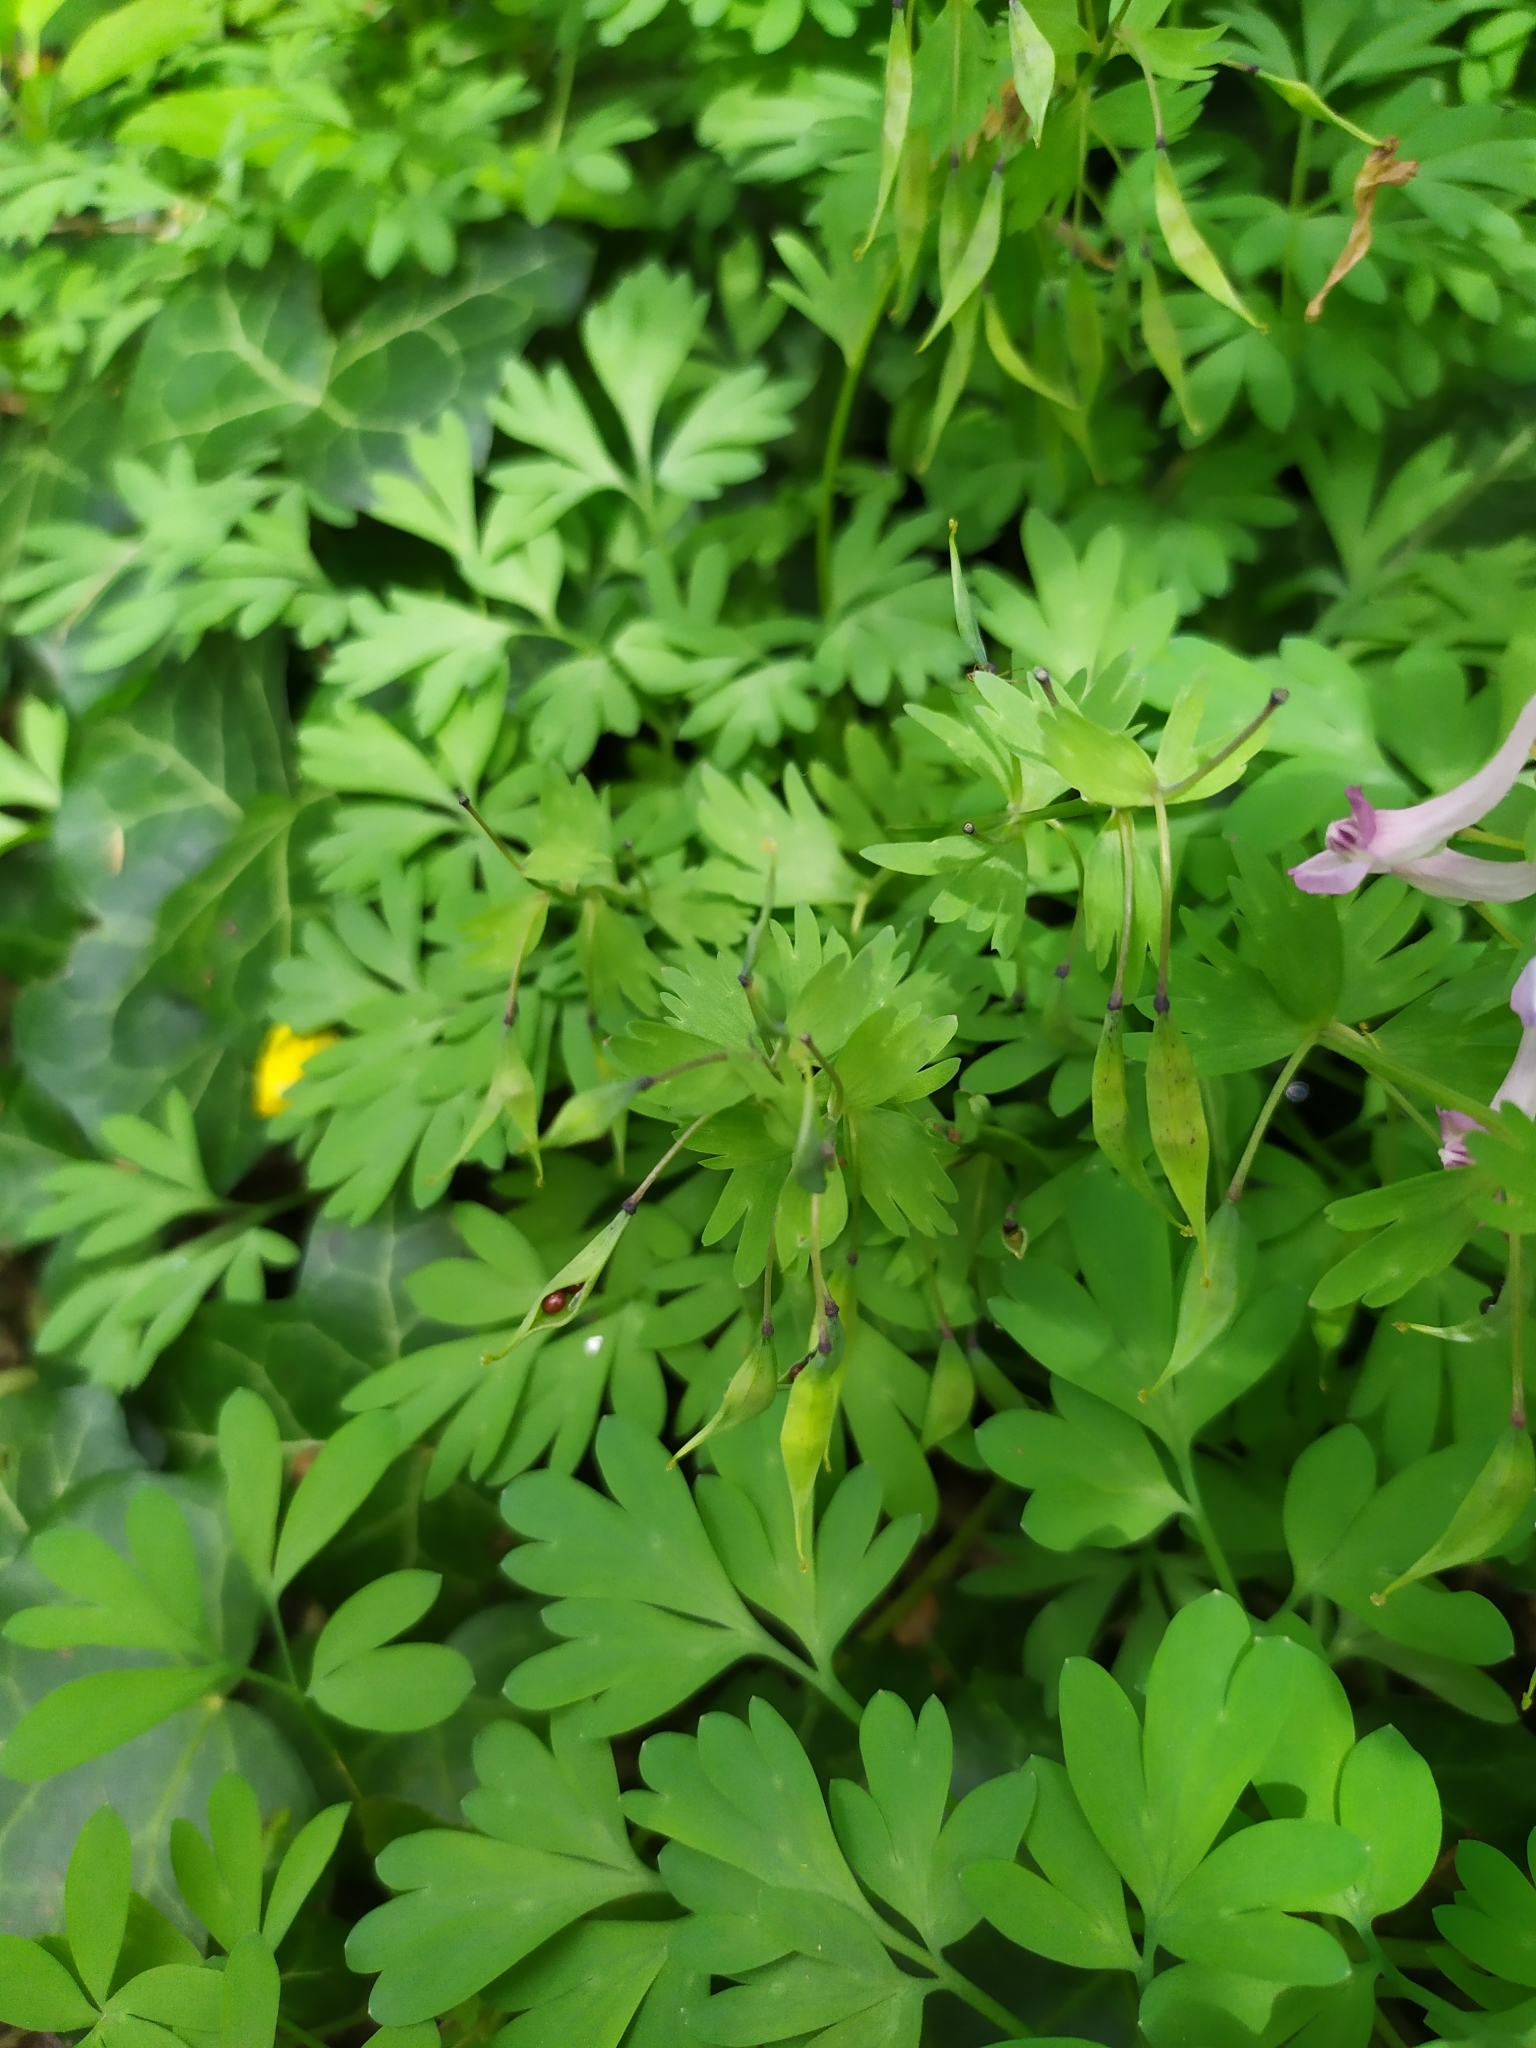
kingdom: Plantae
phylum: Tracheophyta
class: Magnoliopsida
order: Ranunculales
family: Papaveraceae
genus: Corydalis
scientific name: Corydalis solida
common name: Bird-in-a-bush
